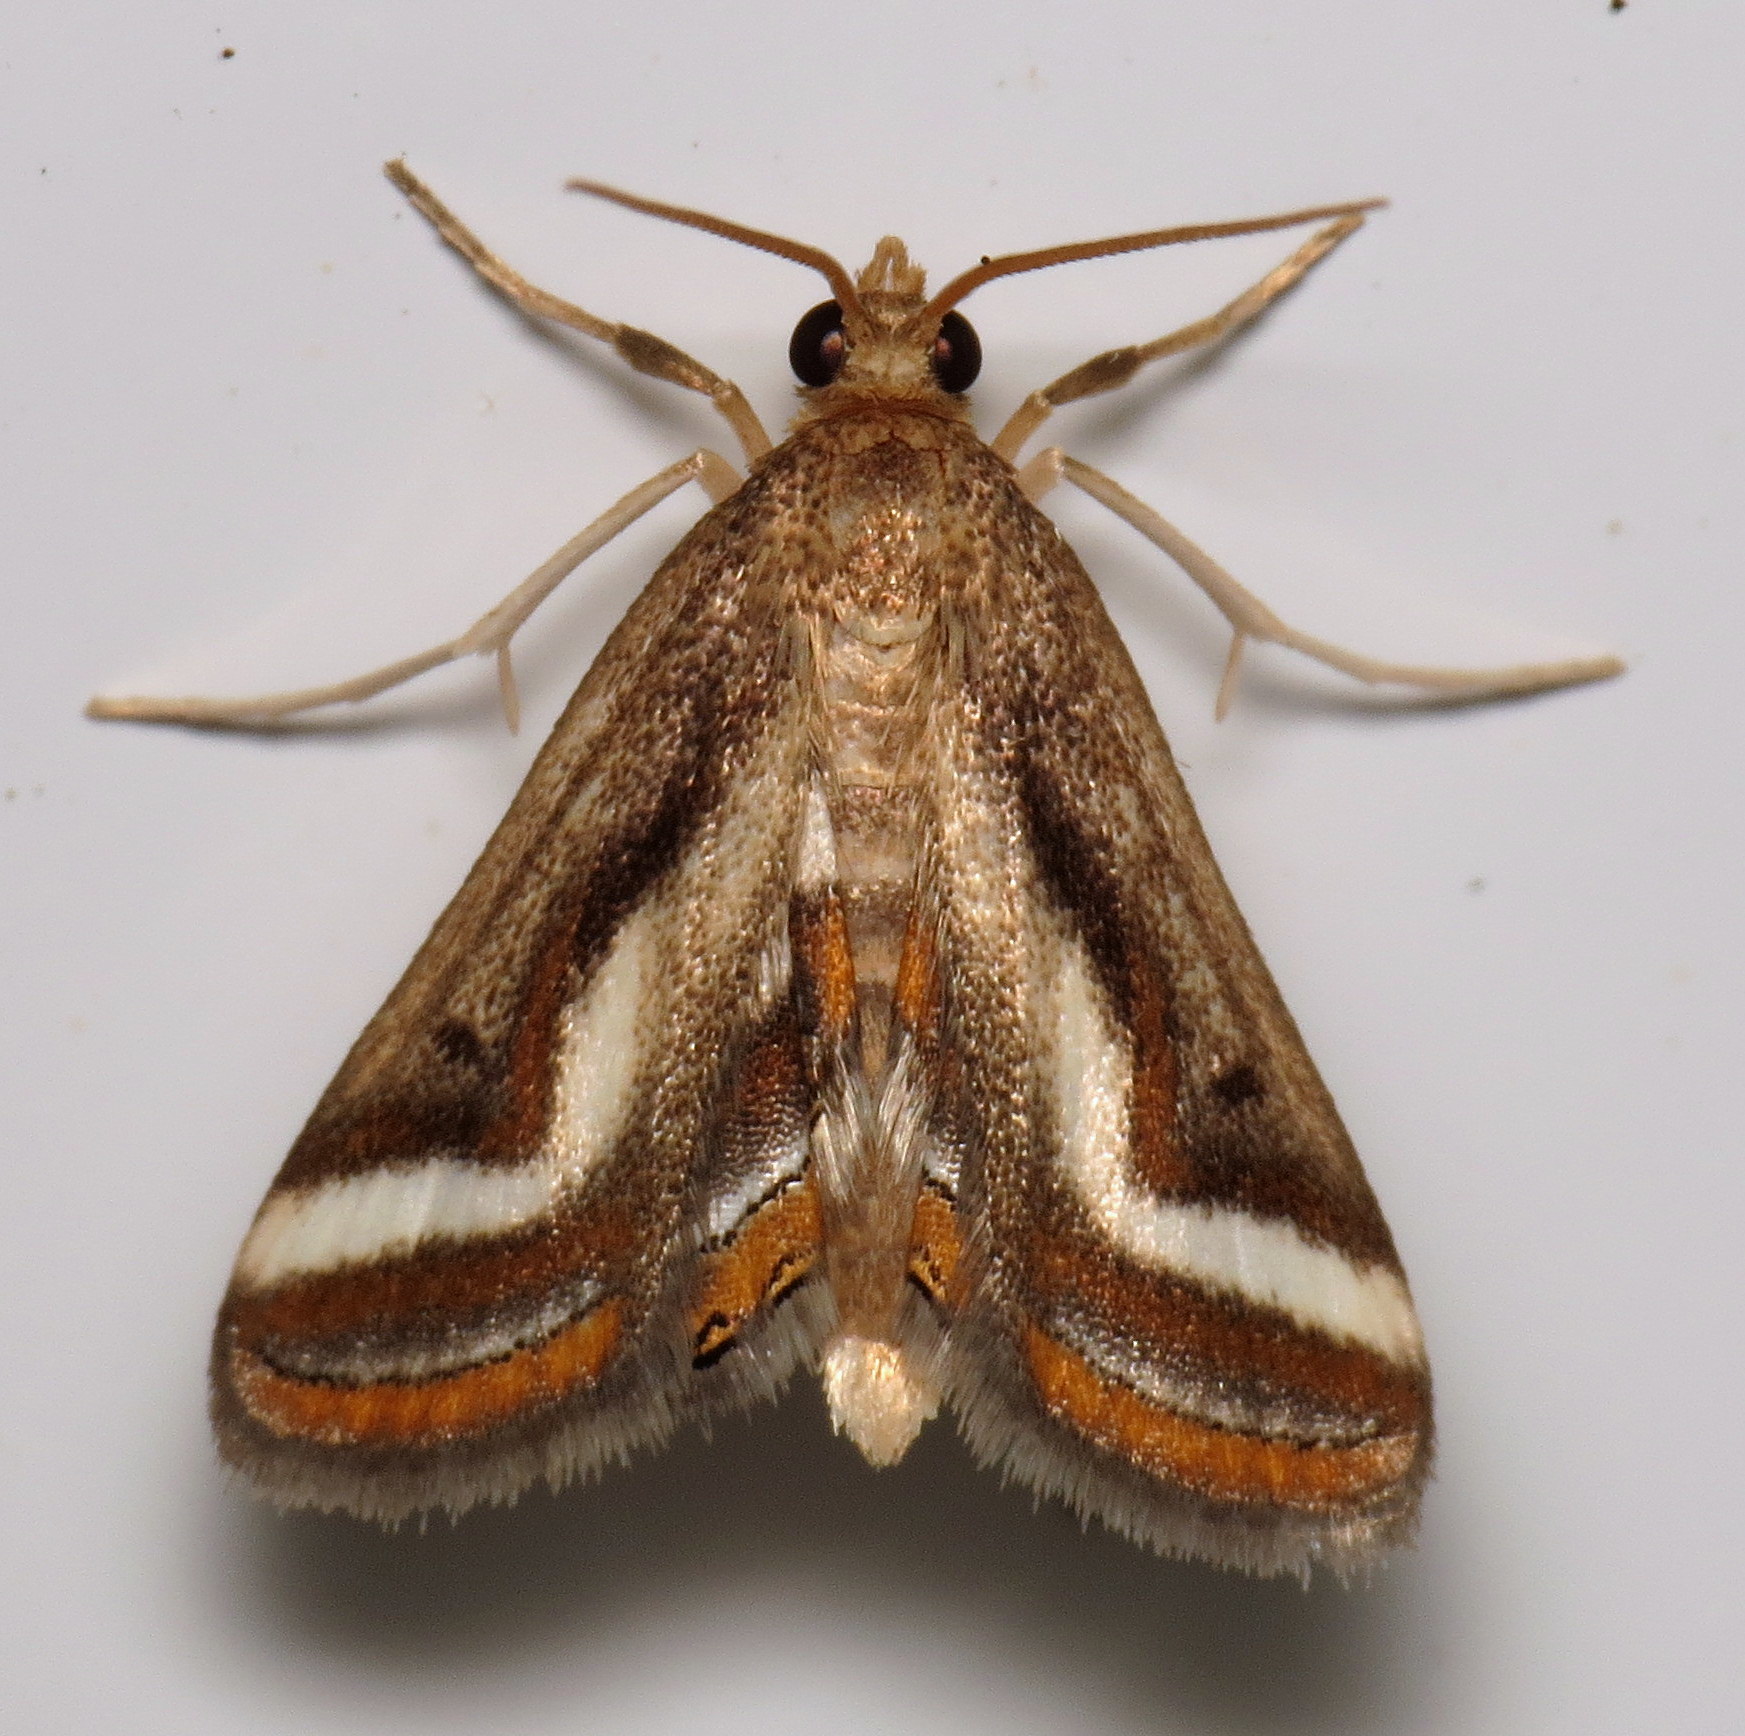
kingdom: Animalia
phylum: Arthropoda
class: Insecta
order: Lepidoptera
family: Crambidae
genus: Parapoynx
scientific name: Parapoynx seminealis
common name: Floating-heart waterlily leafcutter
